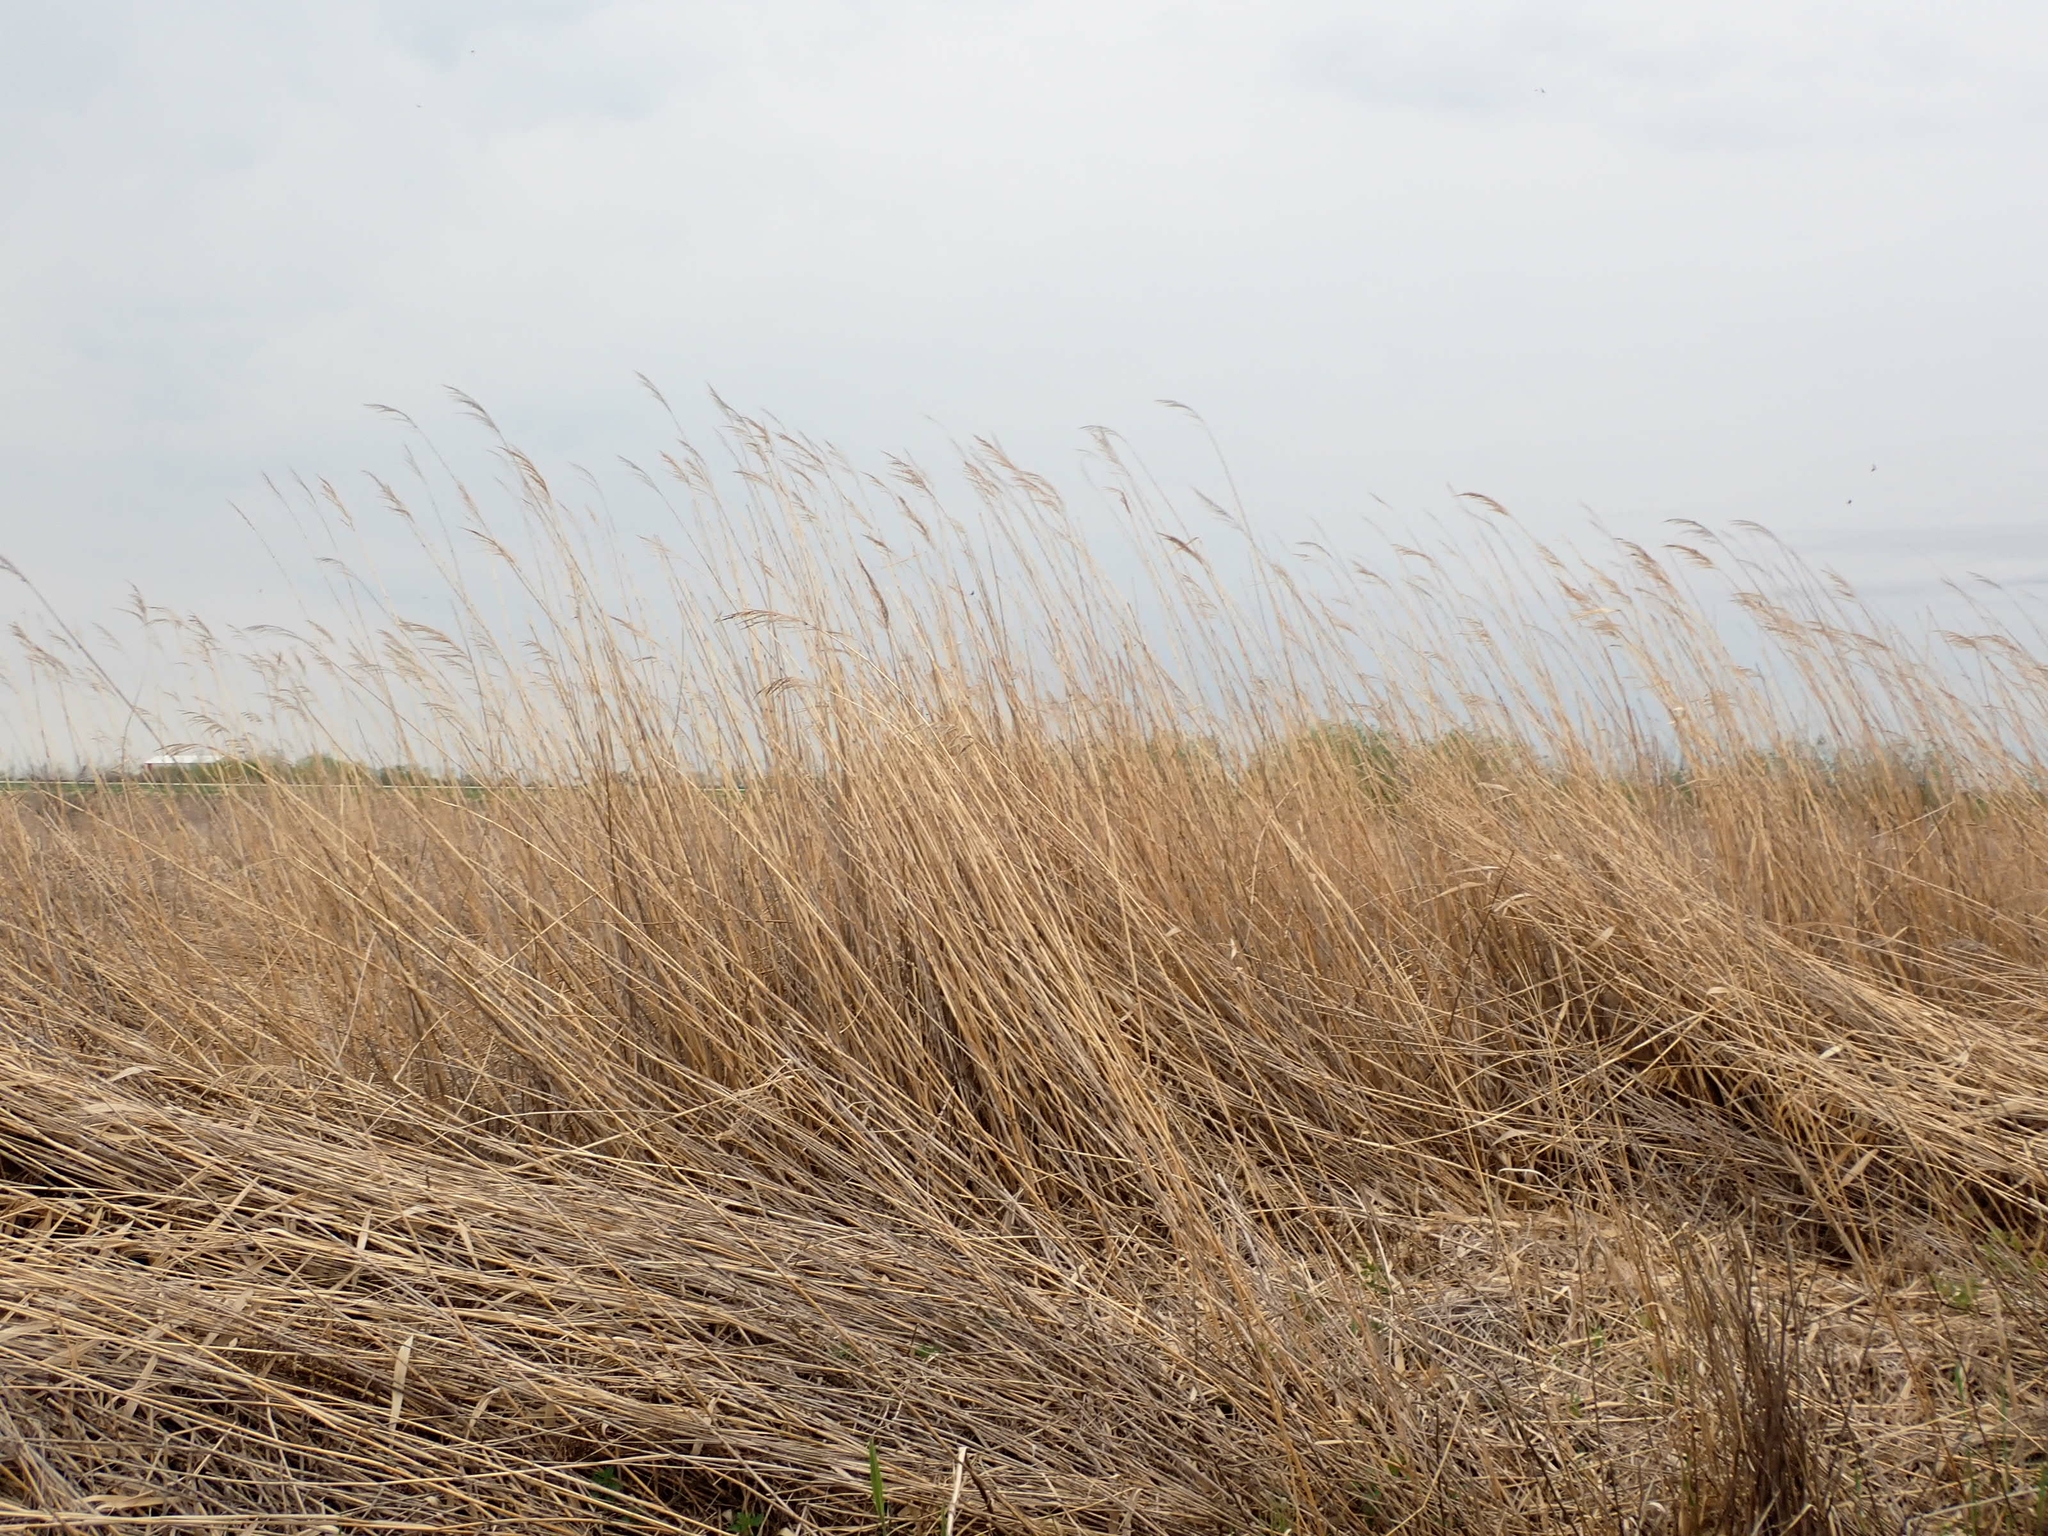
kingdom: Plantae
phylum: Tracheophyta
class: Liliopsida
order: Poales
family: Poaceae
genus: Phragmites
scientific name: Phragmites australis
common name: Common reed
